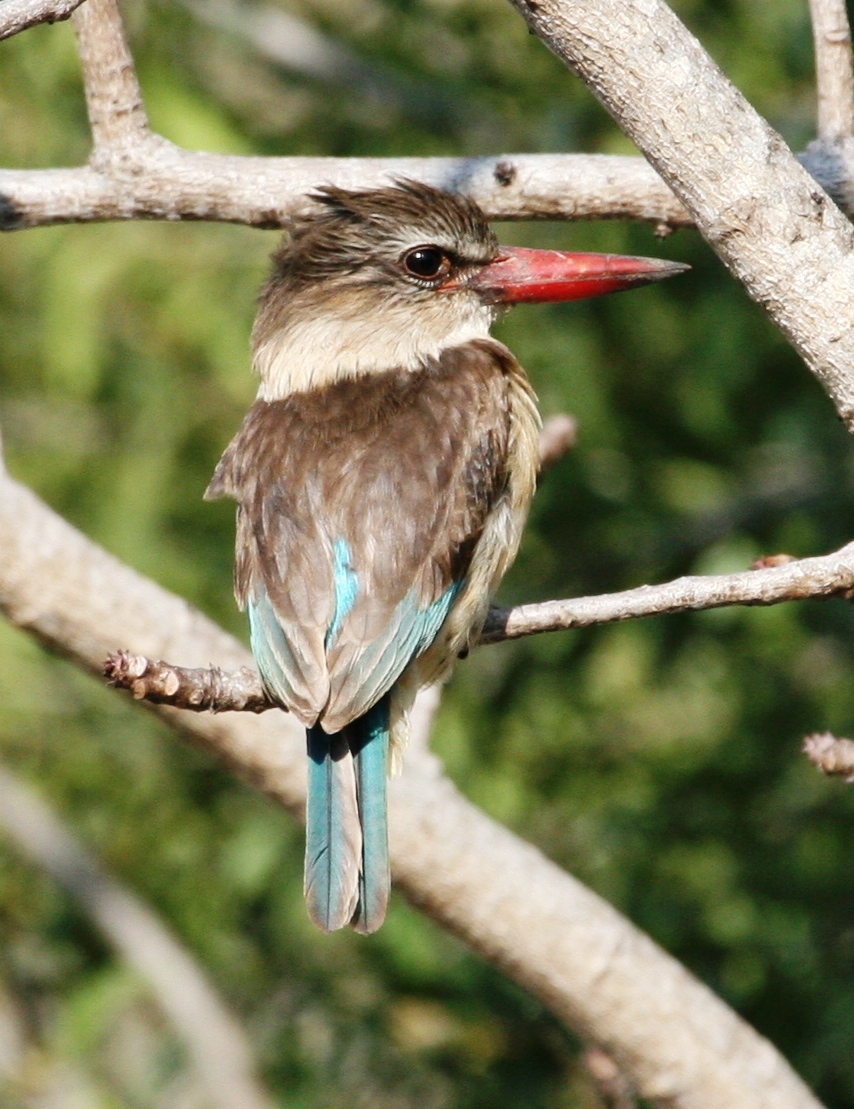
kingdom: Animalia
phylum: Chordata
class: Aves
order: Coraciiformes
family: Alcedinidae
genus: Halcyon
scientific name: Halcyon albiventris
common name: Brown-hooded kingfisher
